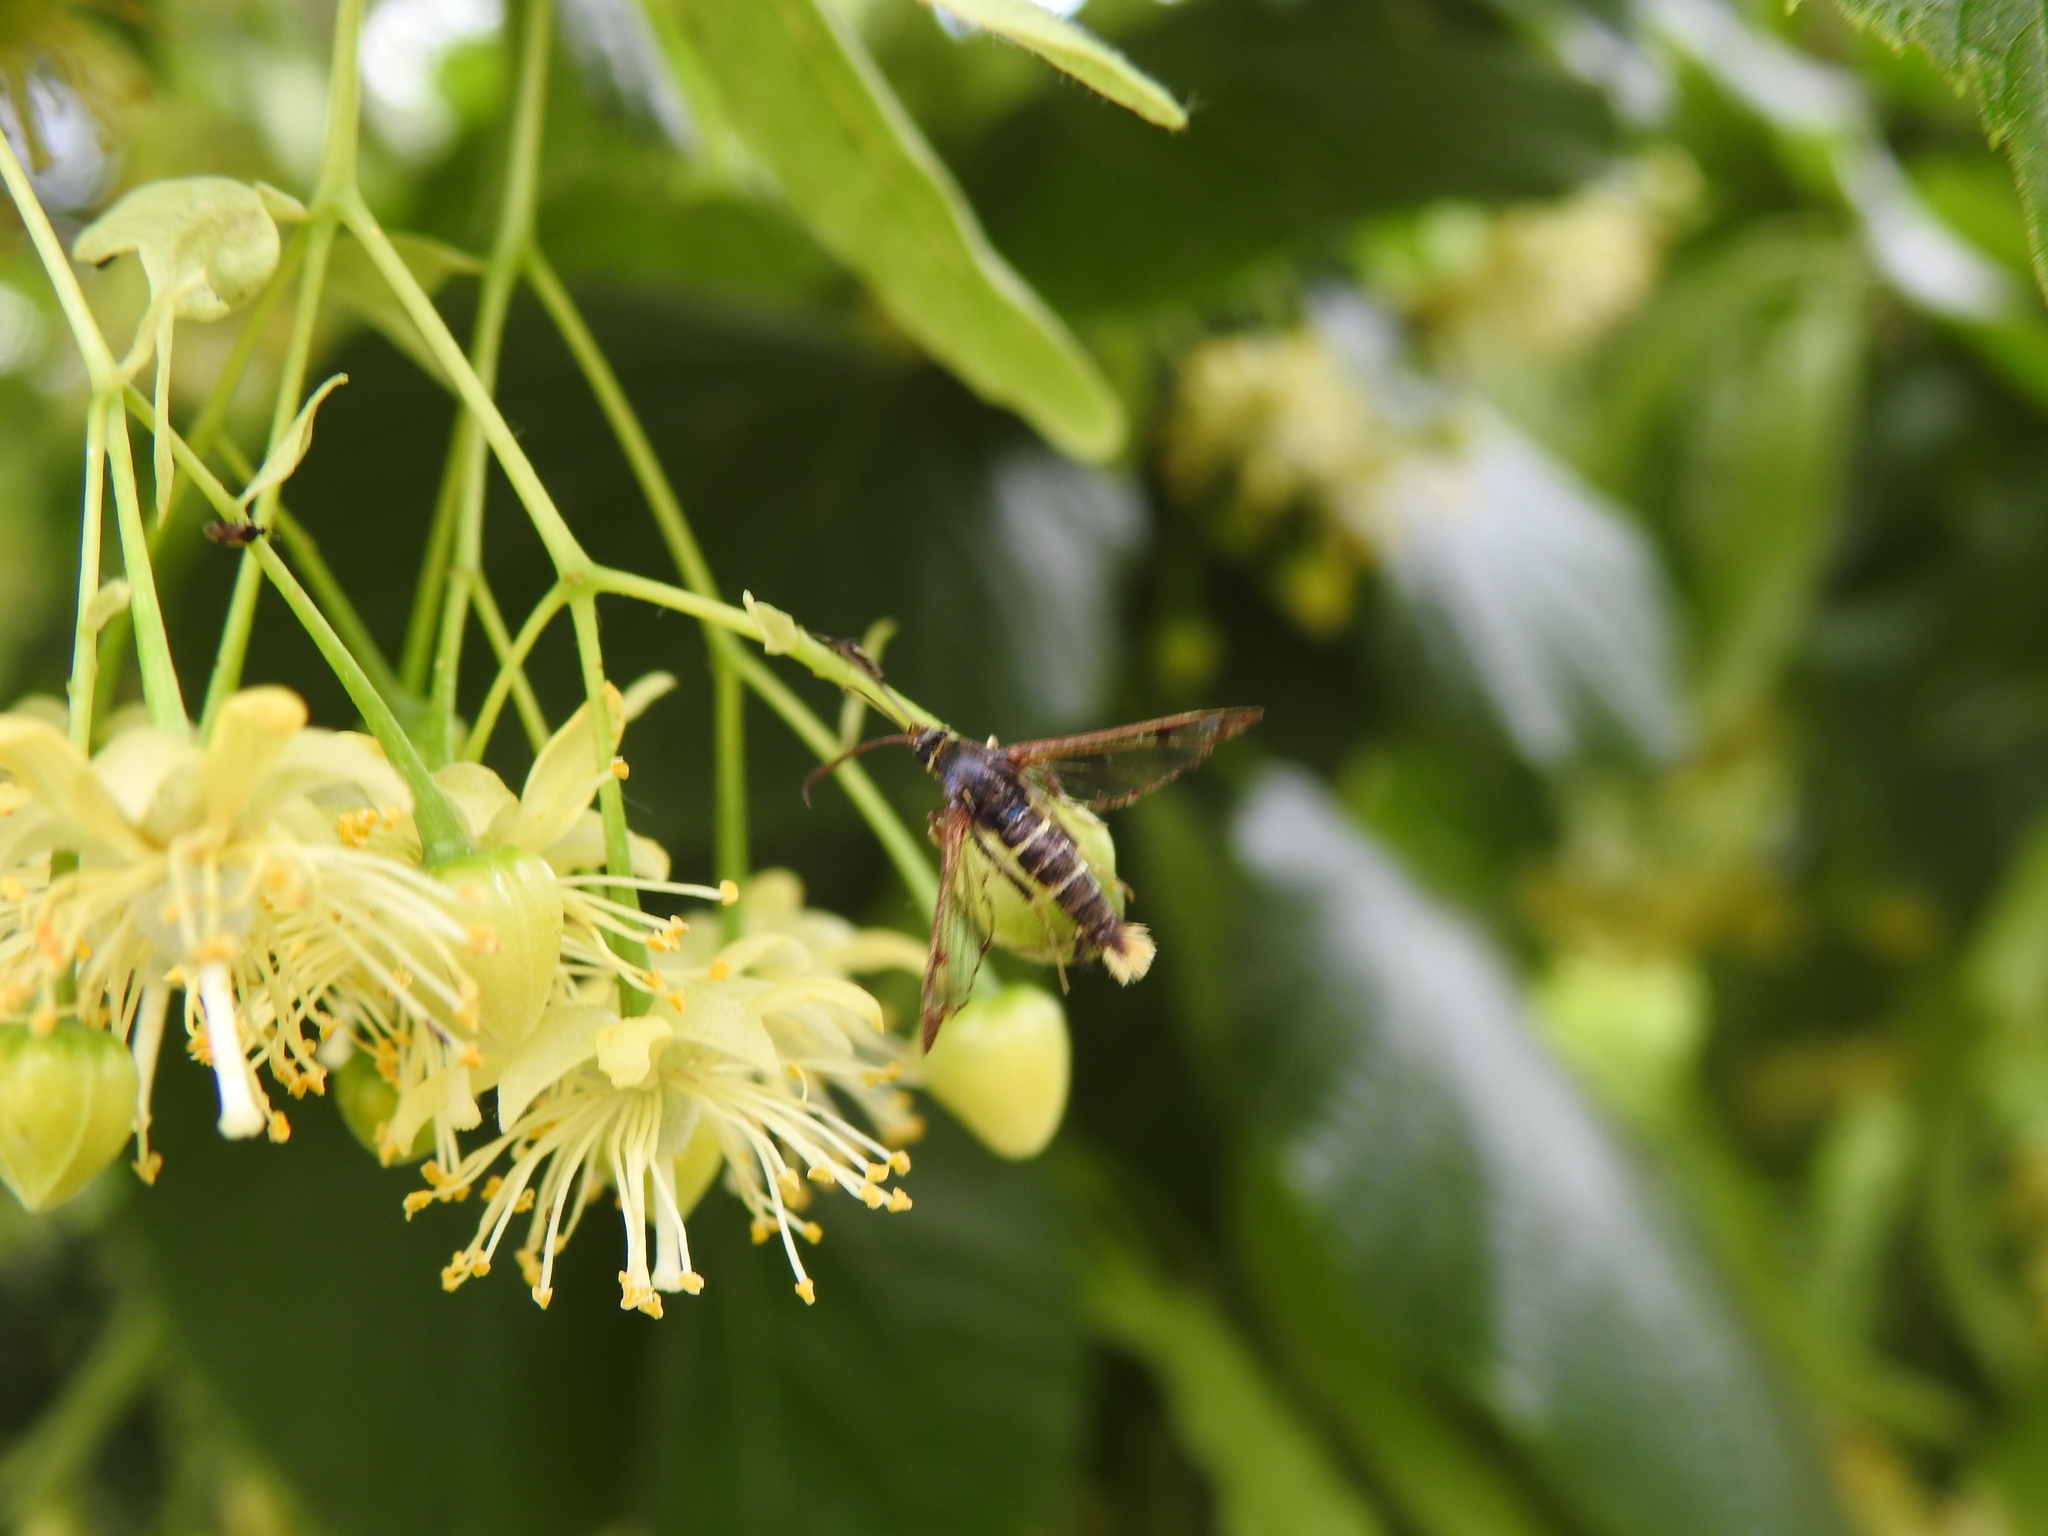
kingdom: Animalia
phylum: Arthropoda
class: Insecta
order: Lepidoptera
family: Sesiidae
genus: Synanthedon
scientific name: Synanthedon loranthi
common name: Mistletoe clearwing
